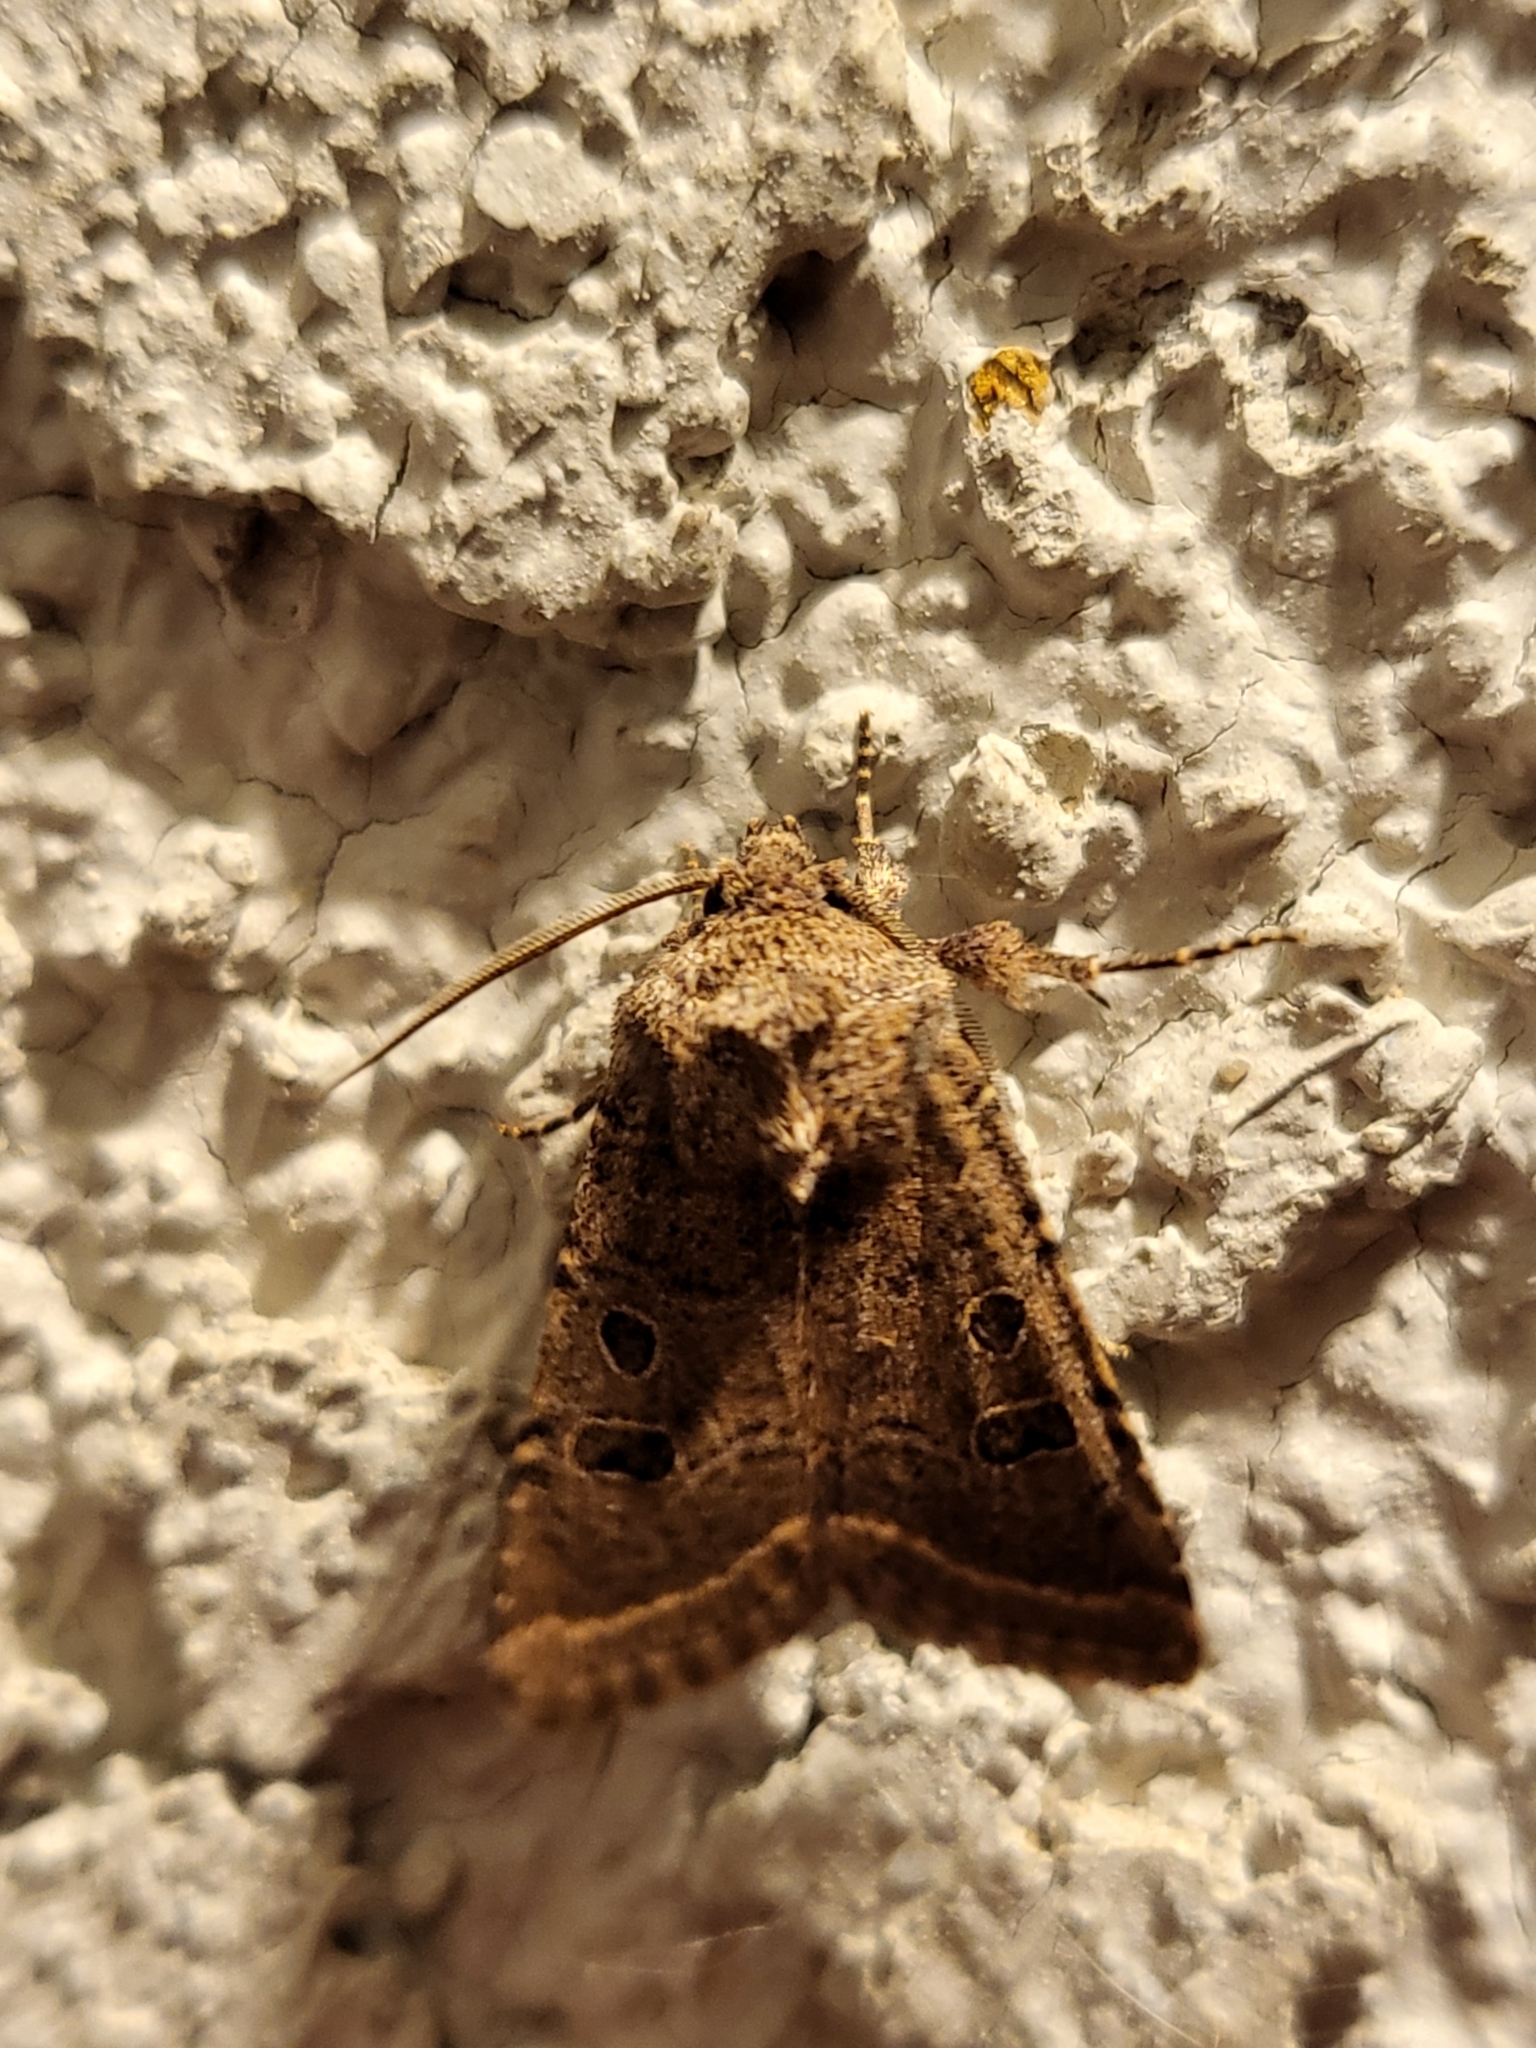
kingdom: Animalia
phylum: Arthropoda
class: Insecta
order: Lepidoptera
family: Noctuidae
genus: Trichopolia
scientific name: Trichopolia
